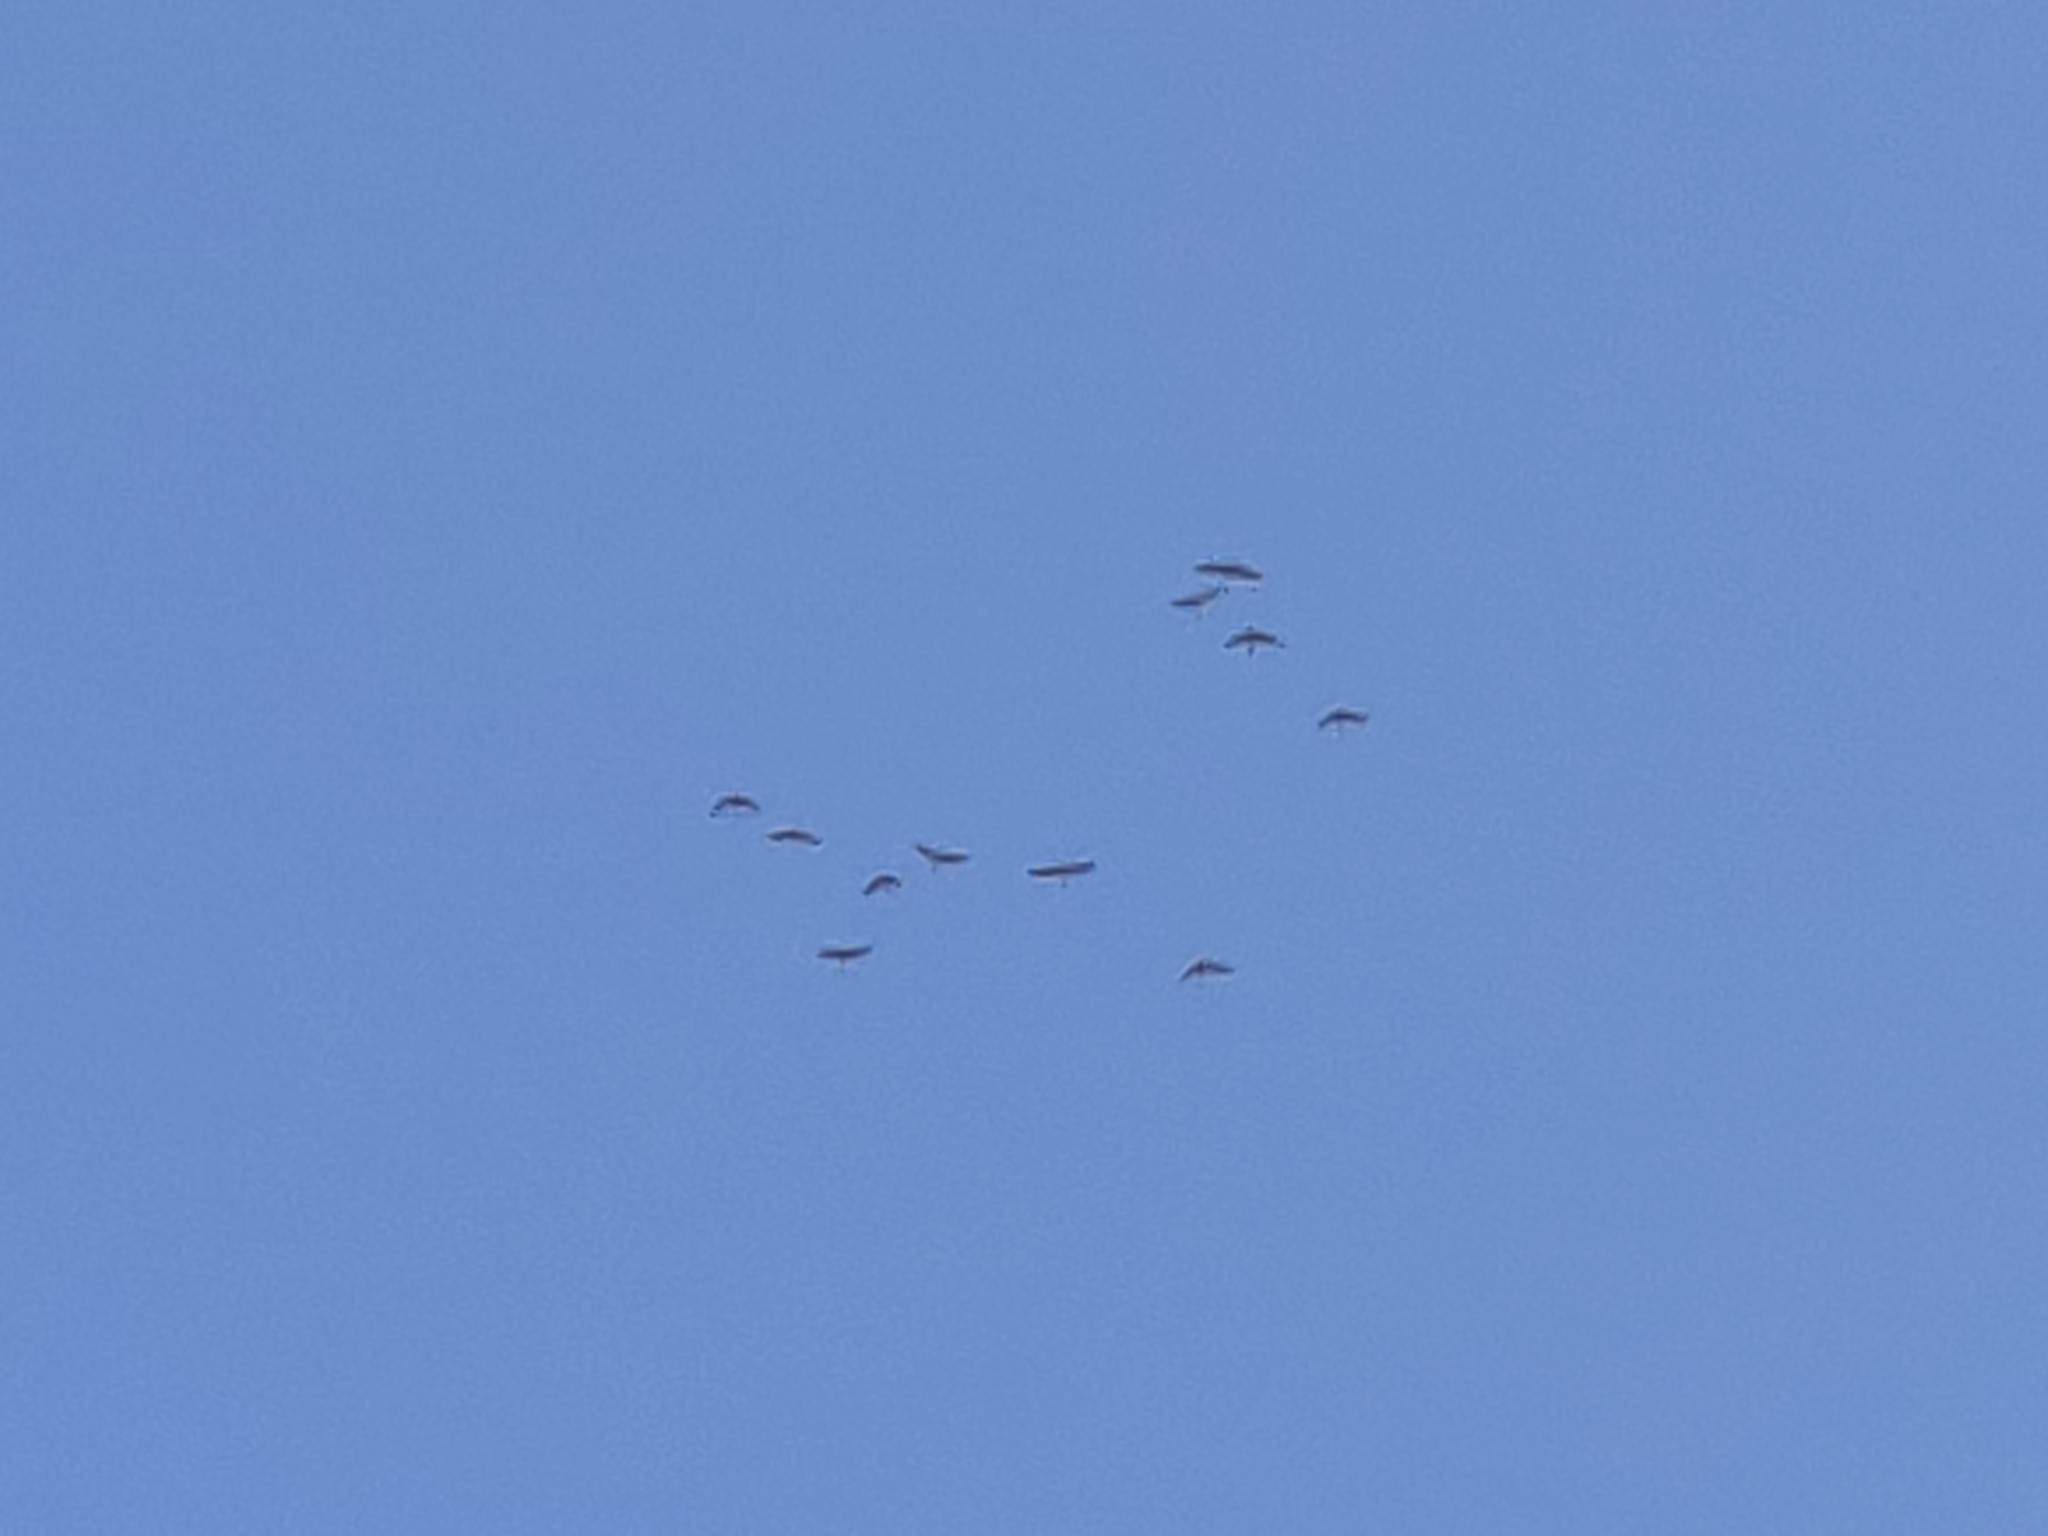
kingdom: Animalia
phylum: Chordata
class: Aves
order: Gruiformes
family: Gruidae
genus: Grus
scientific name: Grus grus
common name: Common crane
